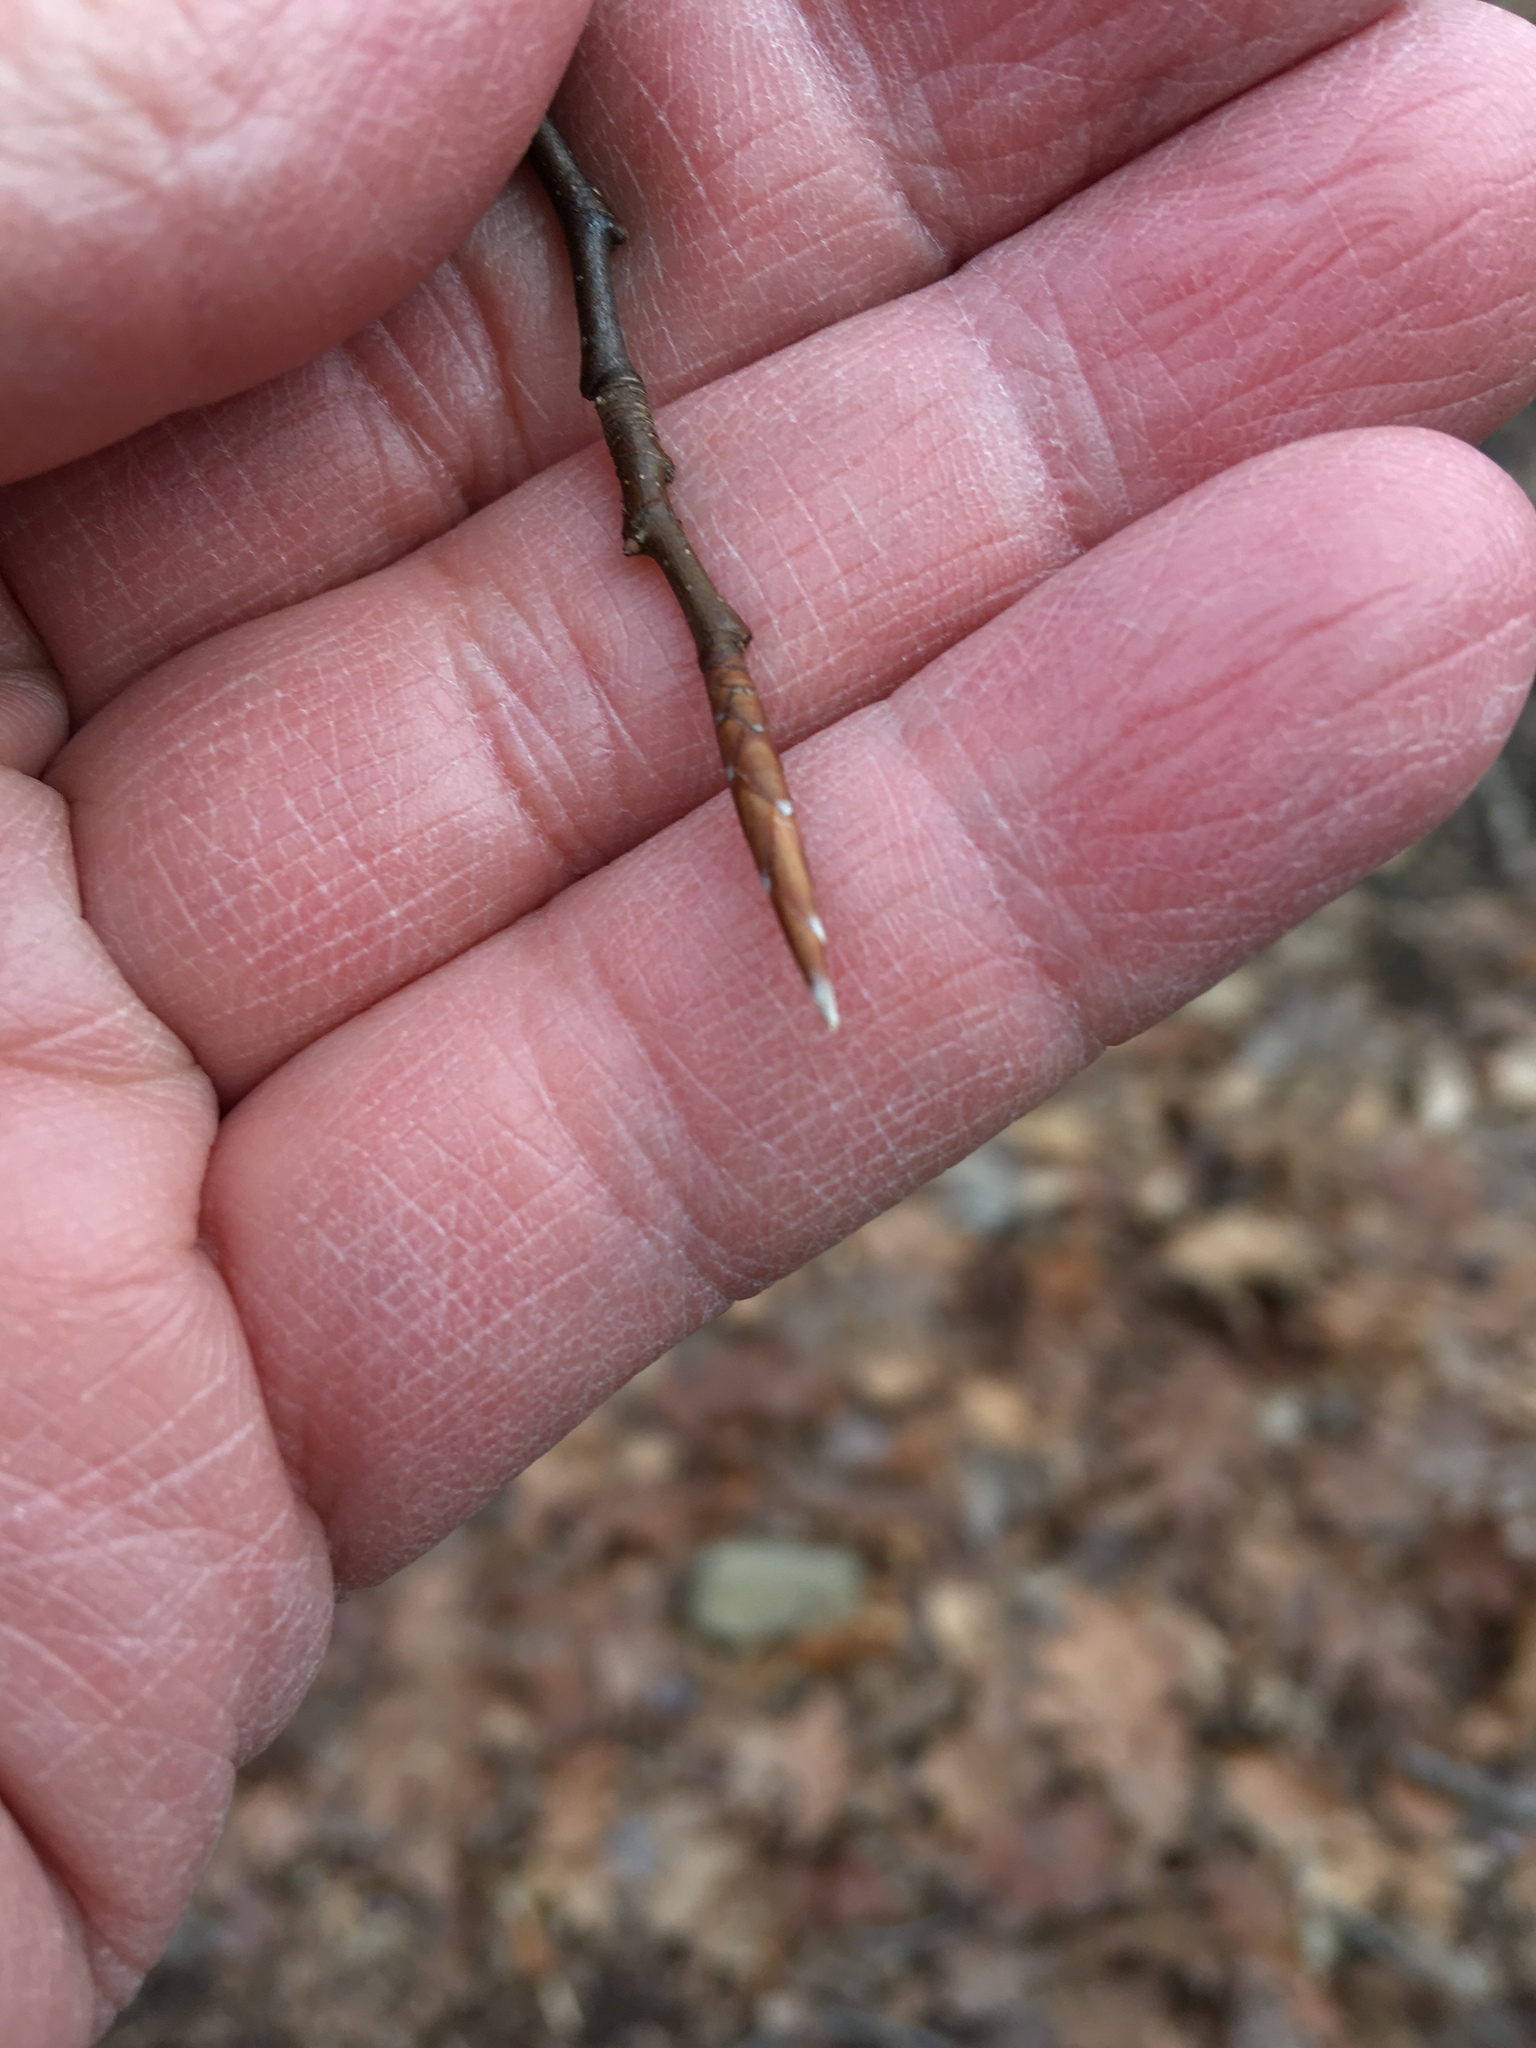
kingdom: Plantae
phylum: Tracheophyta
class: Magnoliopsida
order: Fagales
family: Fagaceae
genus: Fagus
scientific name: Fagus grandifolia
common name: American beech
